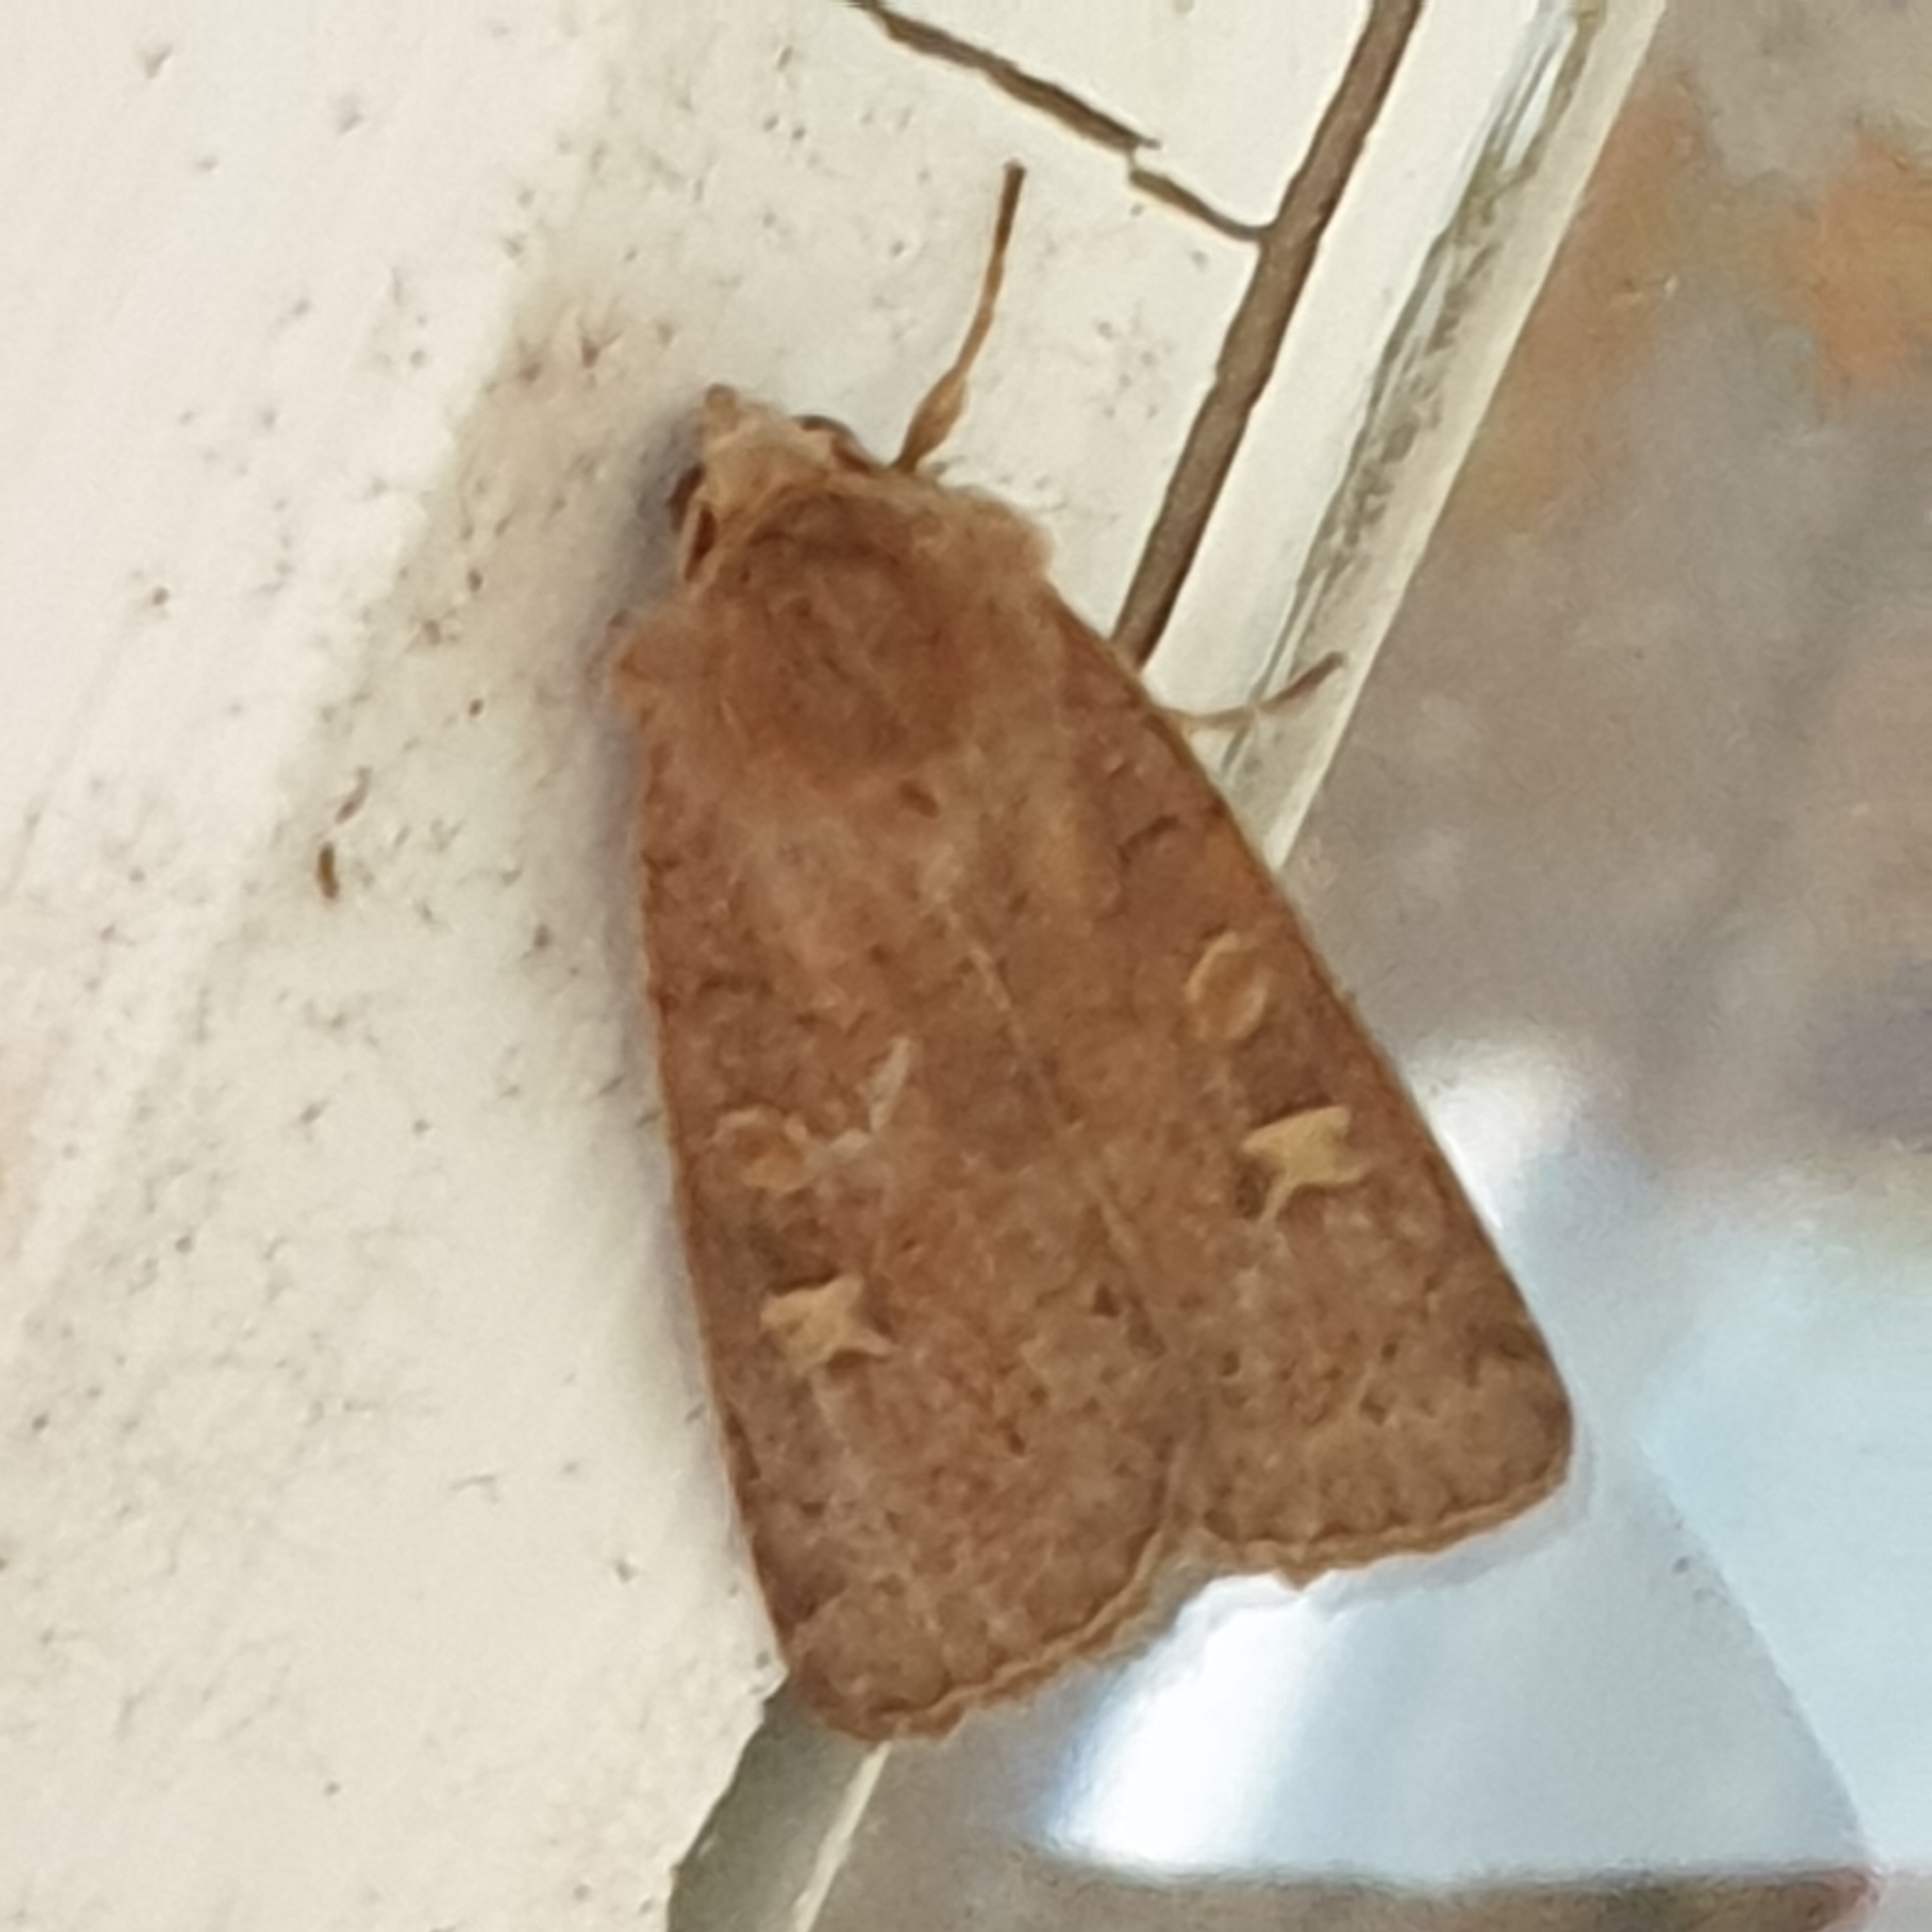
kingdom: Animalia
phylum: Arthropoda
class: Insecta
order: Lepidoptera
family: Noctuidae
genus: Xestia
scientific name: Xestia xanthographa
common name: Square-spot rustic
